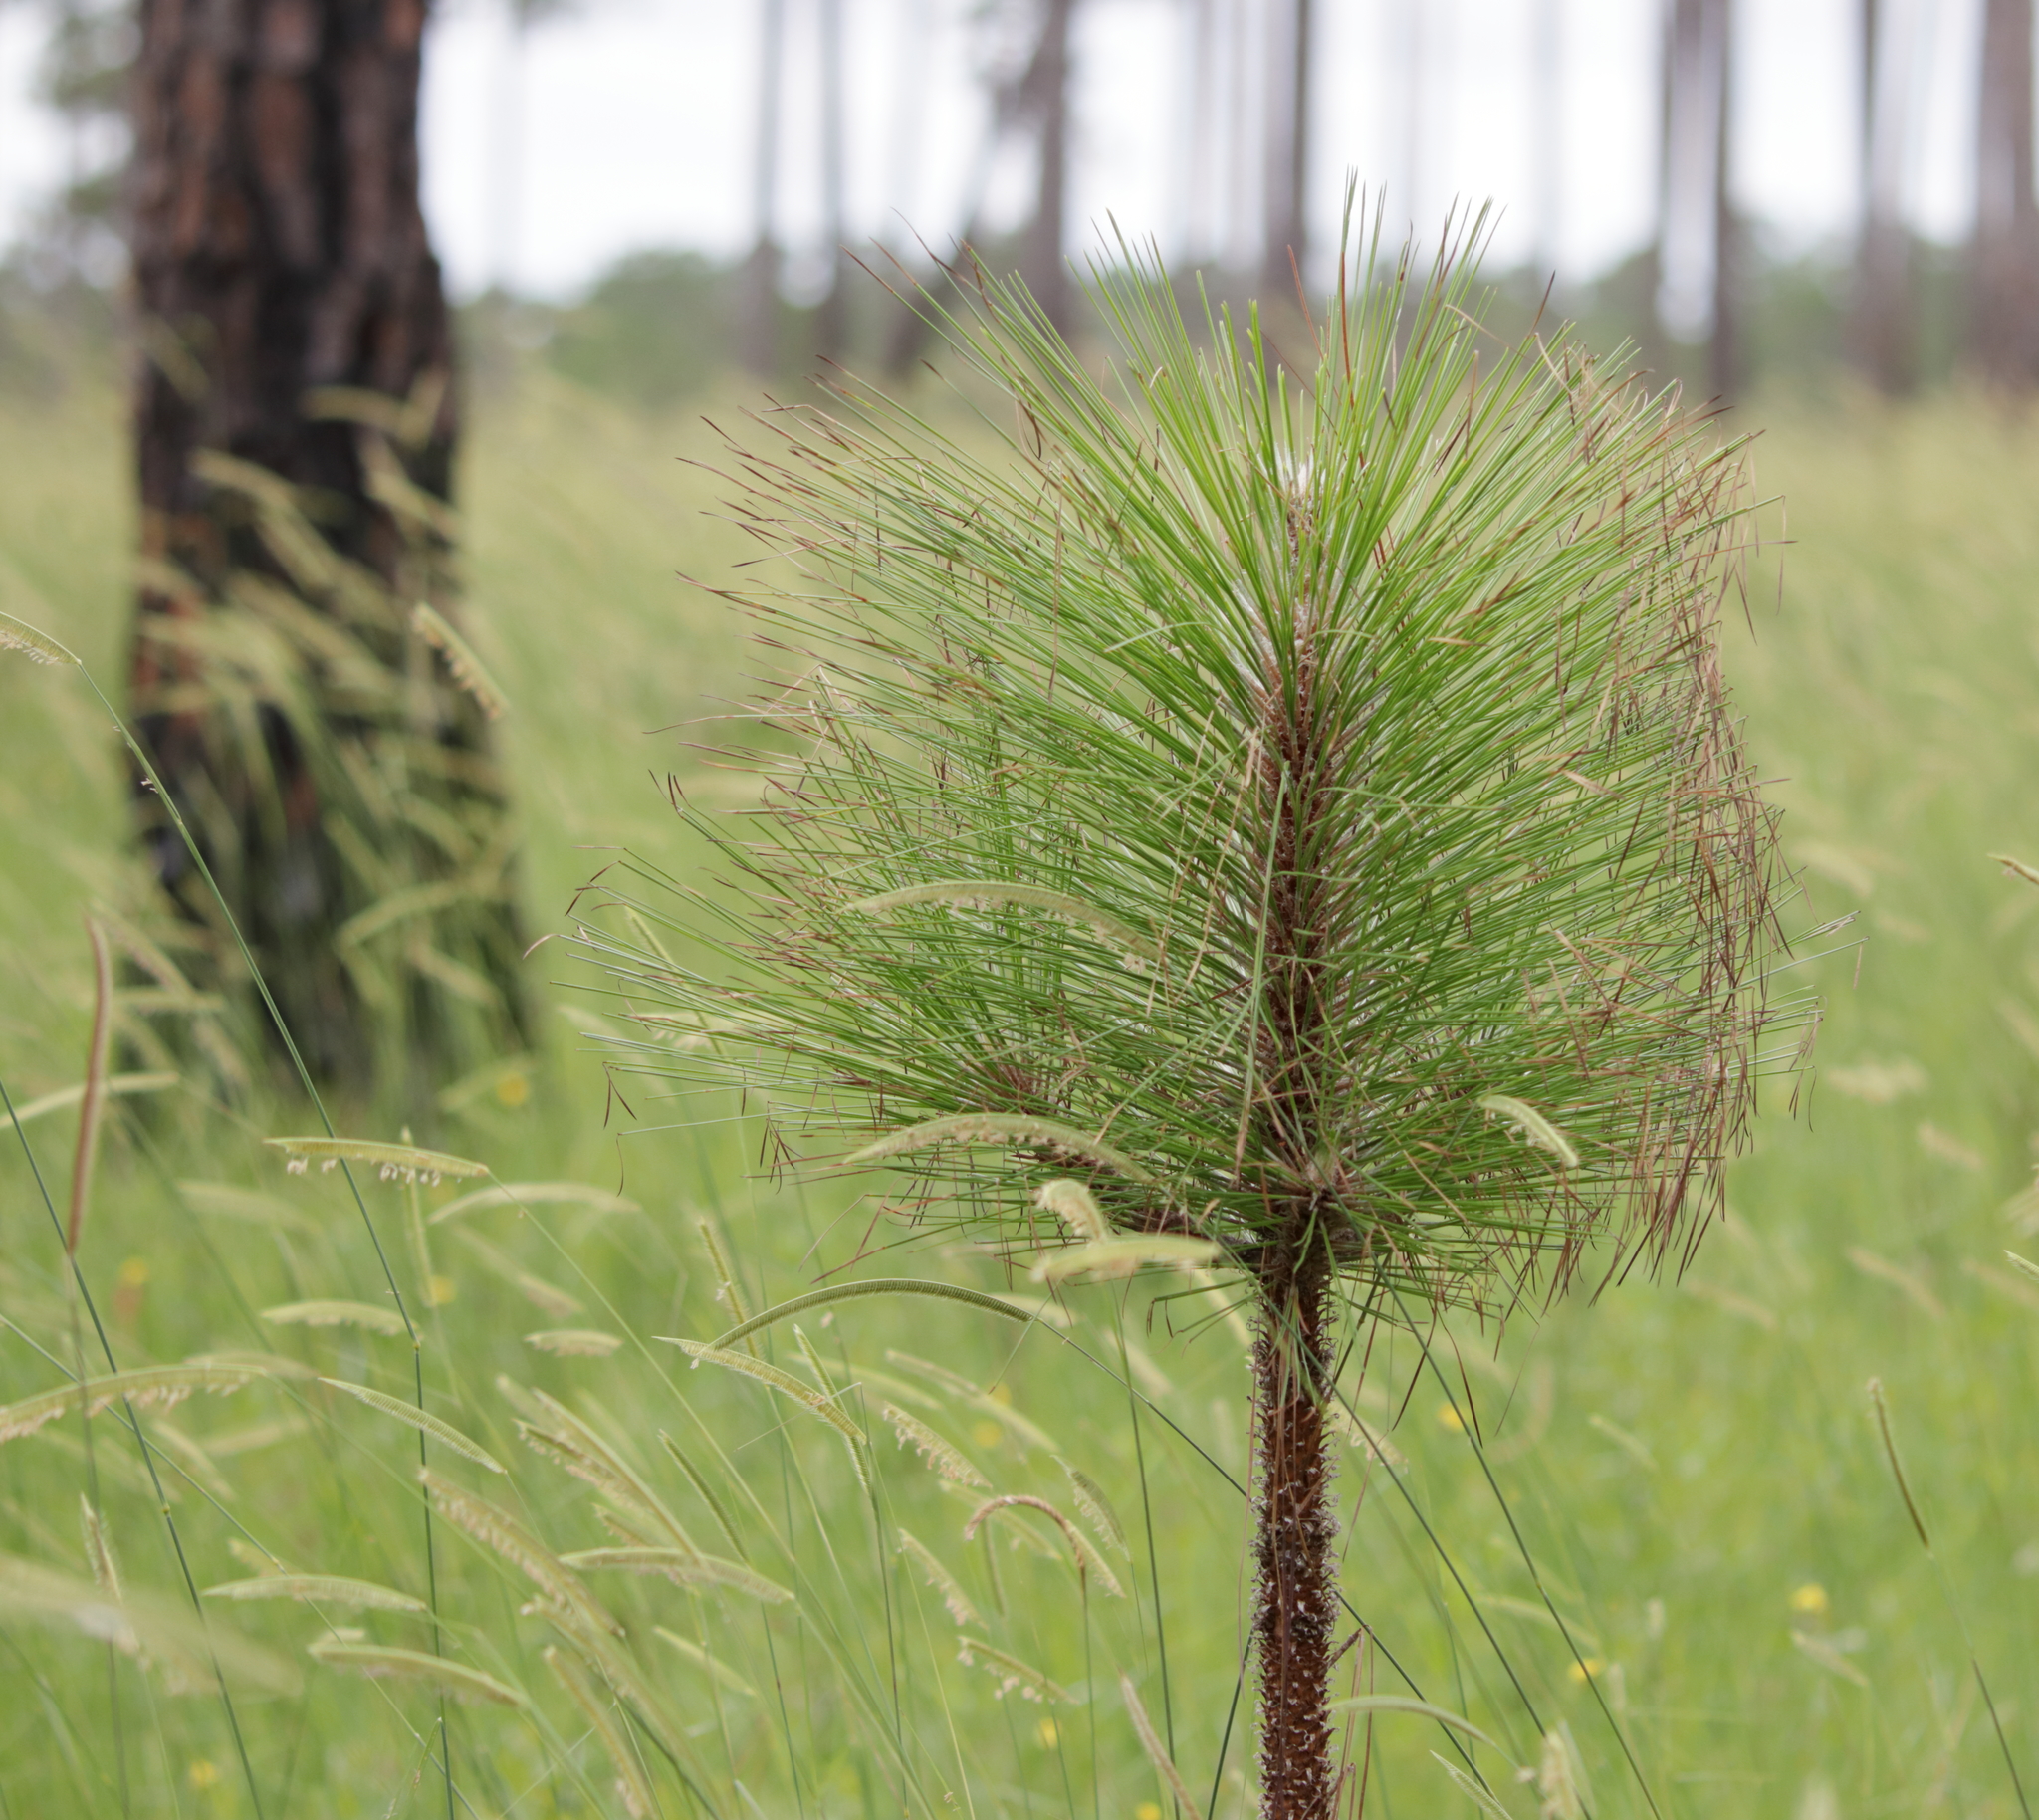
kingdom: Plantae
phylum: Tracheophyta
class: Pinopsida
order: Pinales
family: Pinaceae
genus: Pinus
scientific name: Pinus palustris
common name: Longleaf pine
